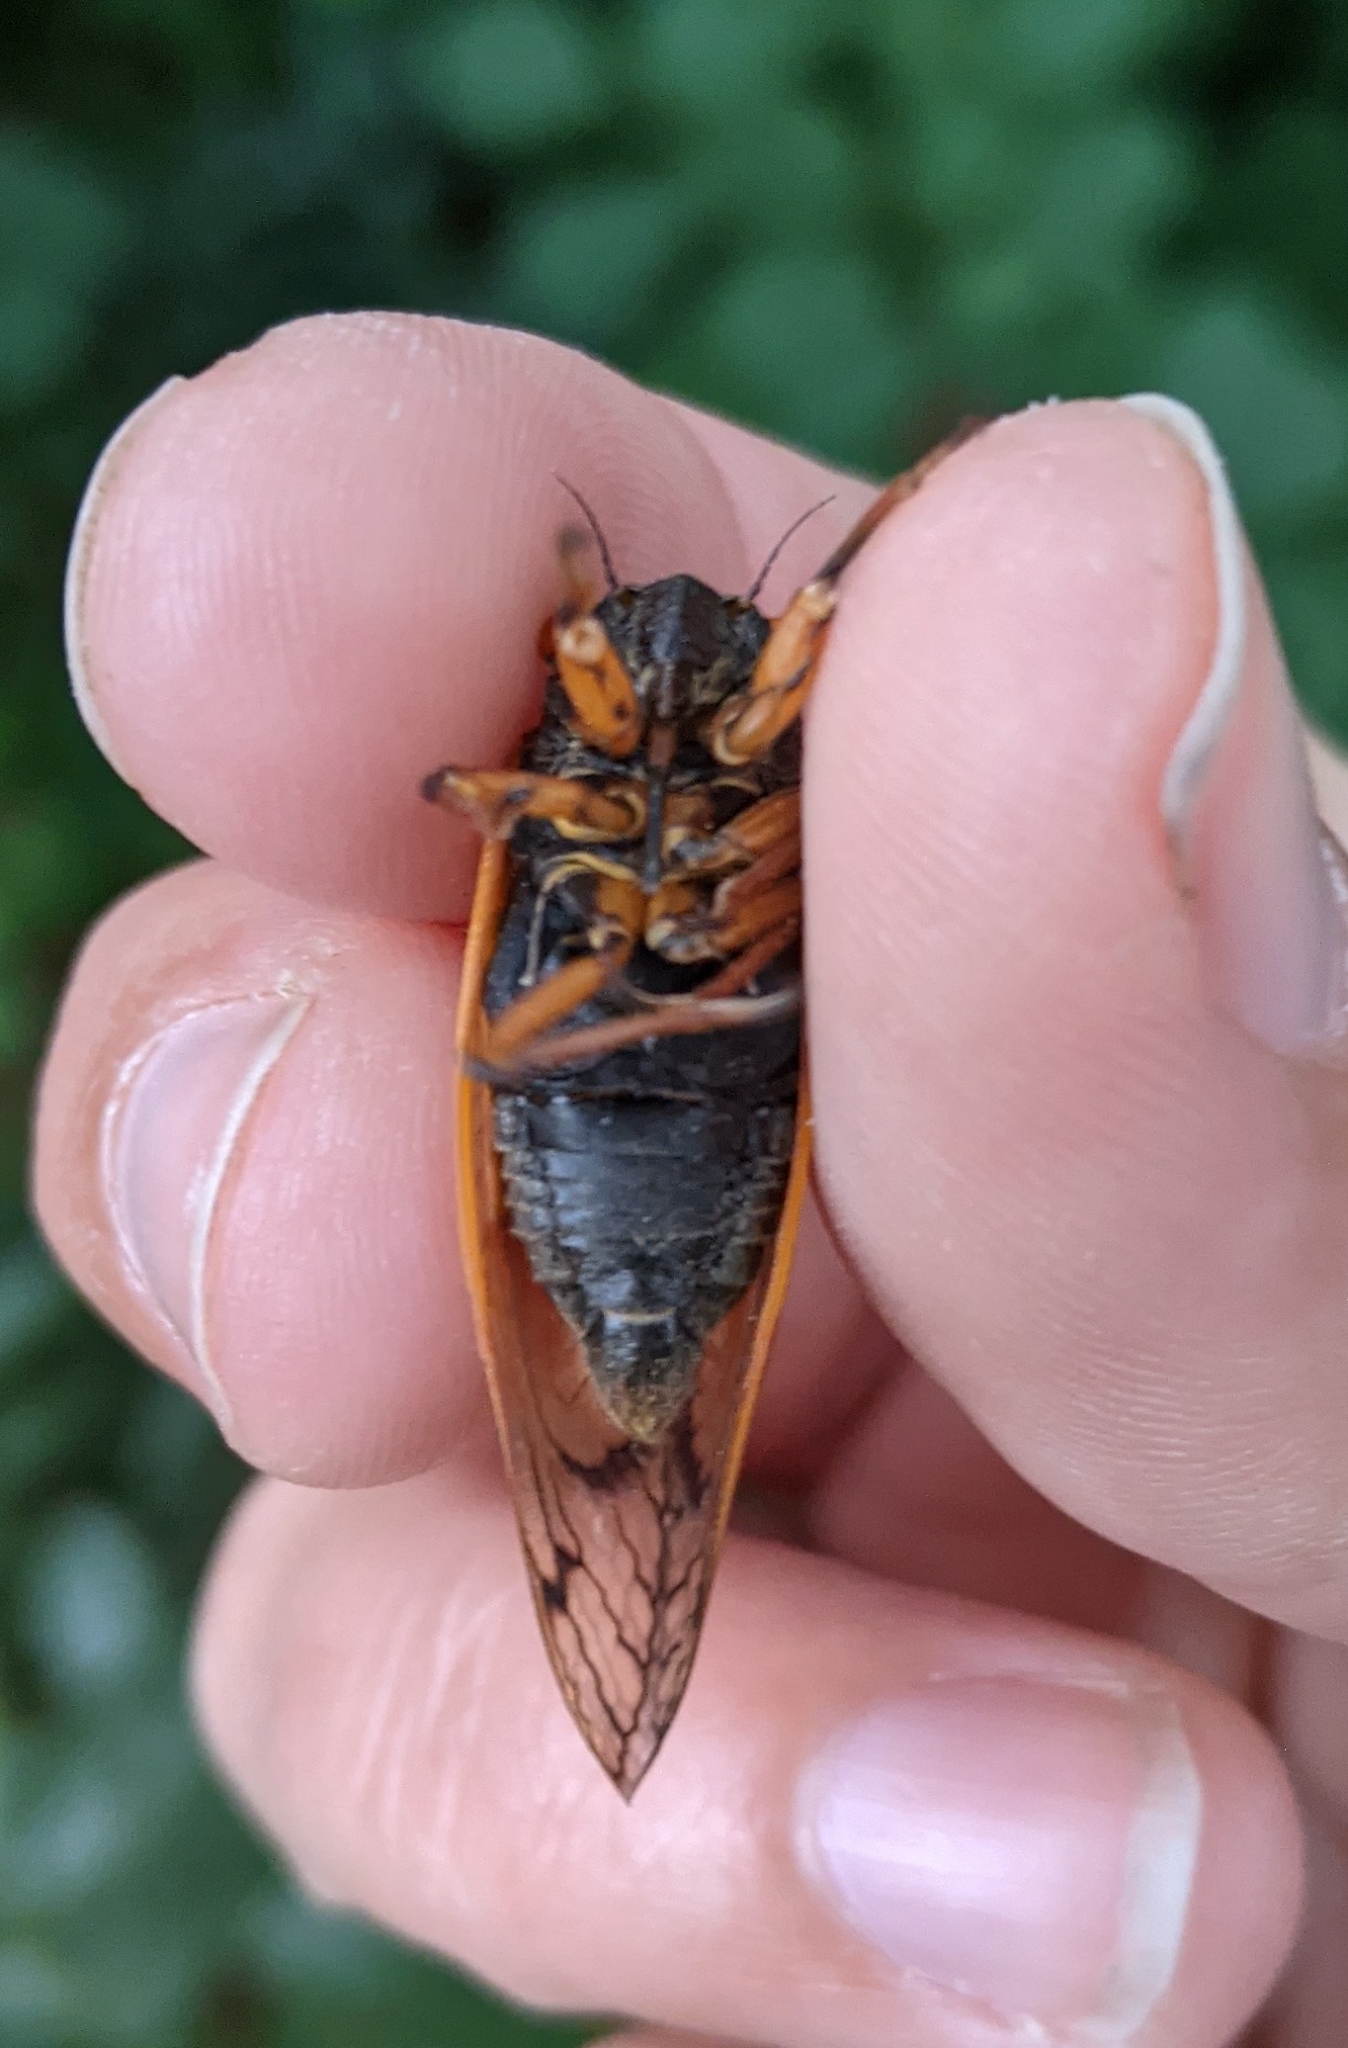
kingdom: Animalia
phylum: Arthropoda
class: Insecta
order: Hemiptera
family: Cicadidae
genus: Magicicada
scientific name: Magicicada cassini
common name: Cassin's 17-year cicada
